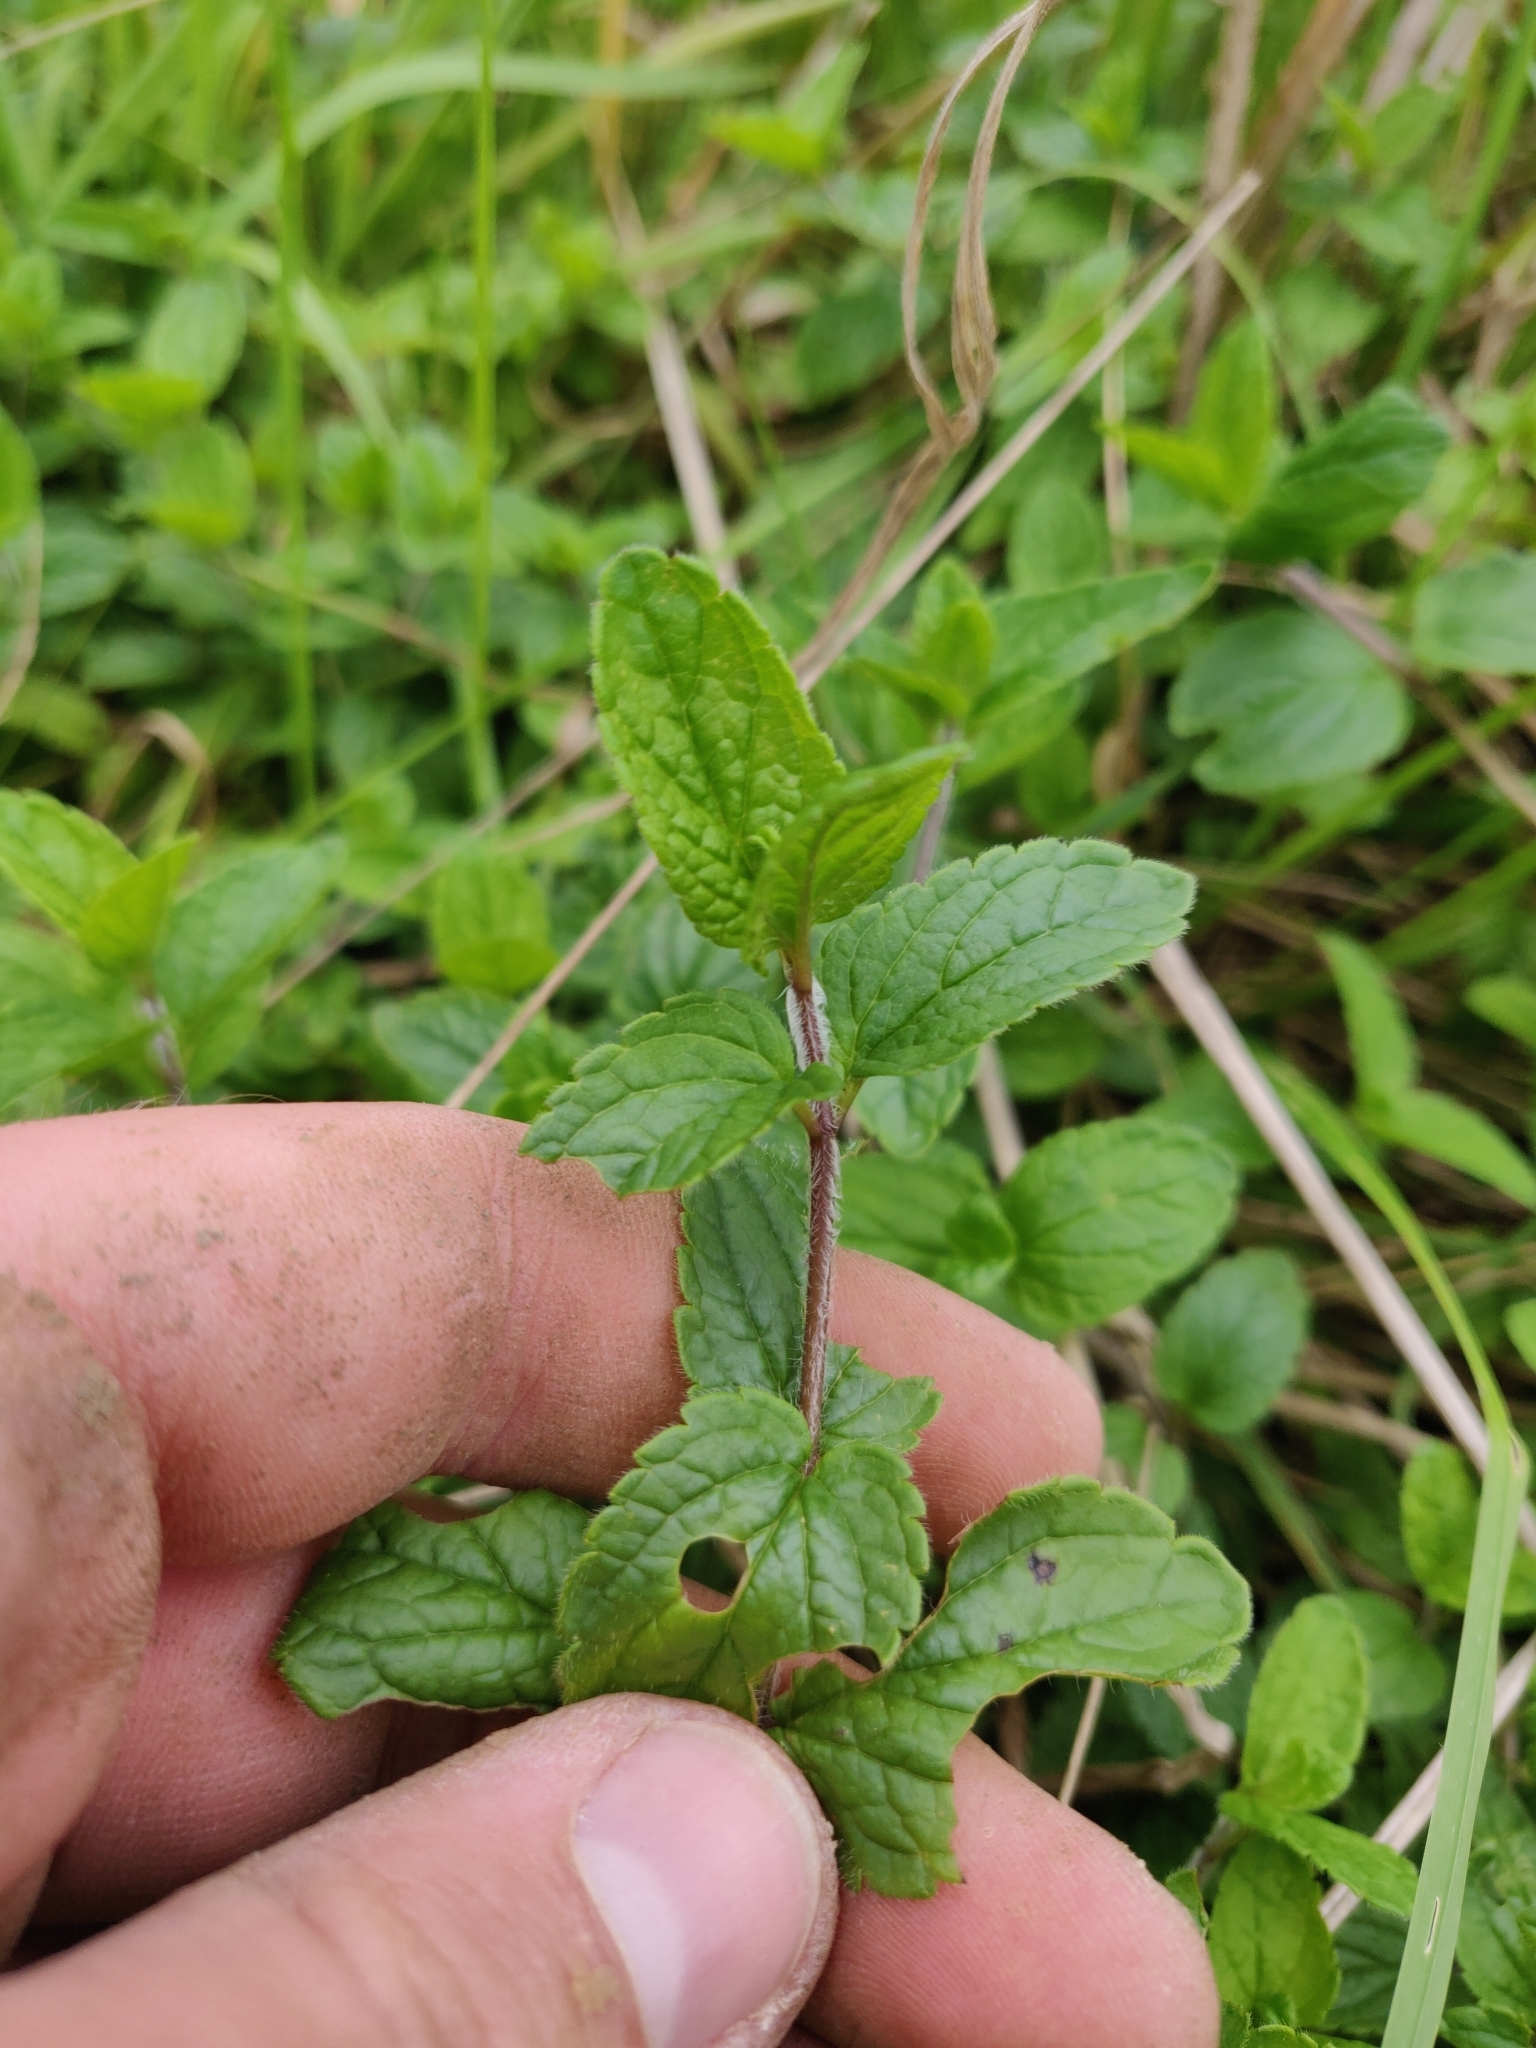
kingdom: Plantae
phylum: Tracheophyta
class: Magnoliopsida
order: Lamiales
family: Plantaginaceae
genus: Veronica
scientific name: Veronica chamaedrys
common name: Germander speedwell
